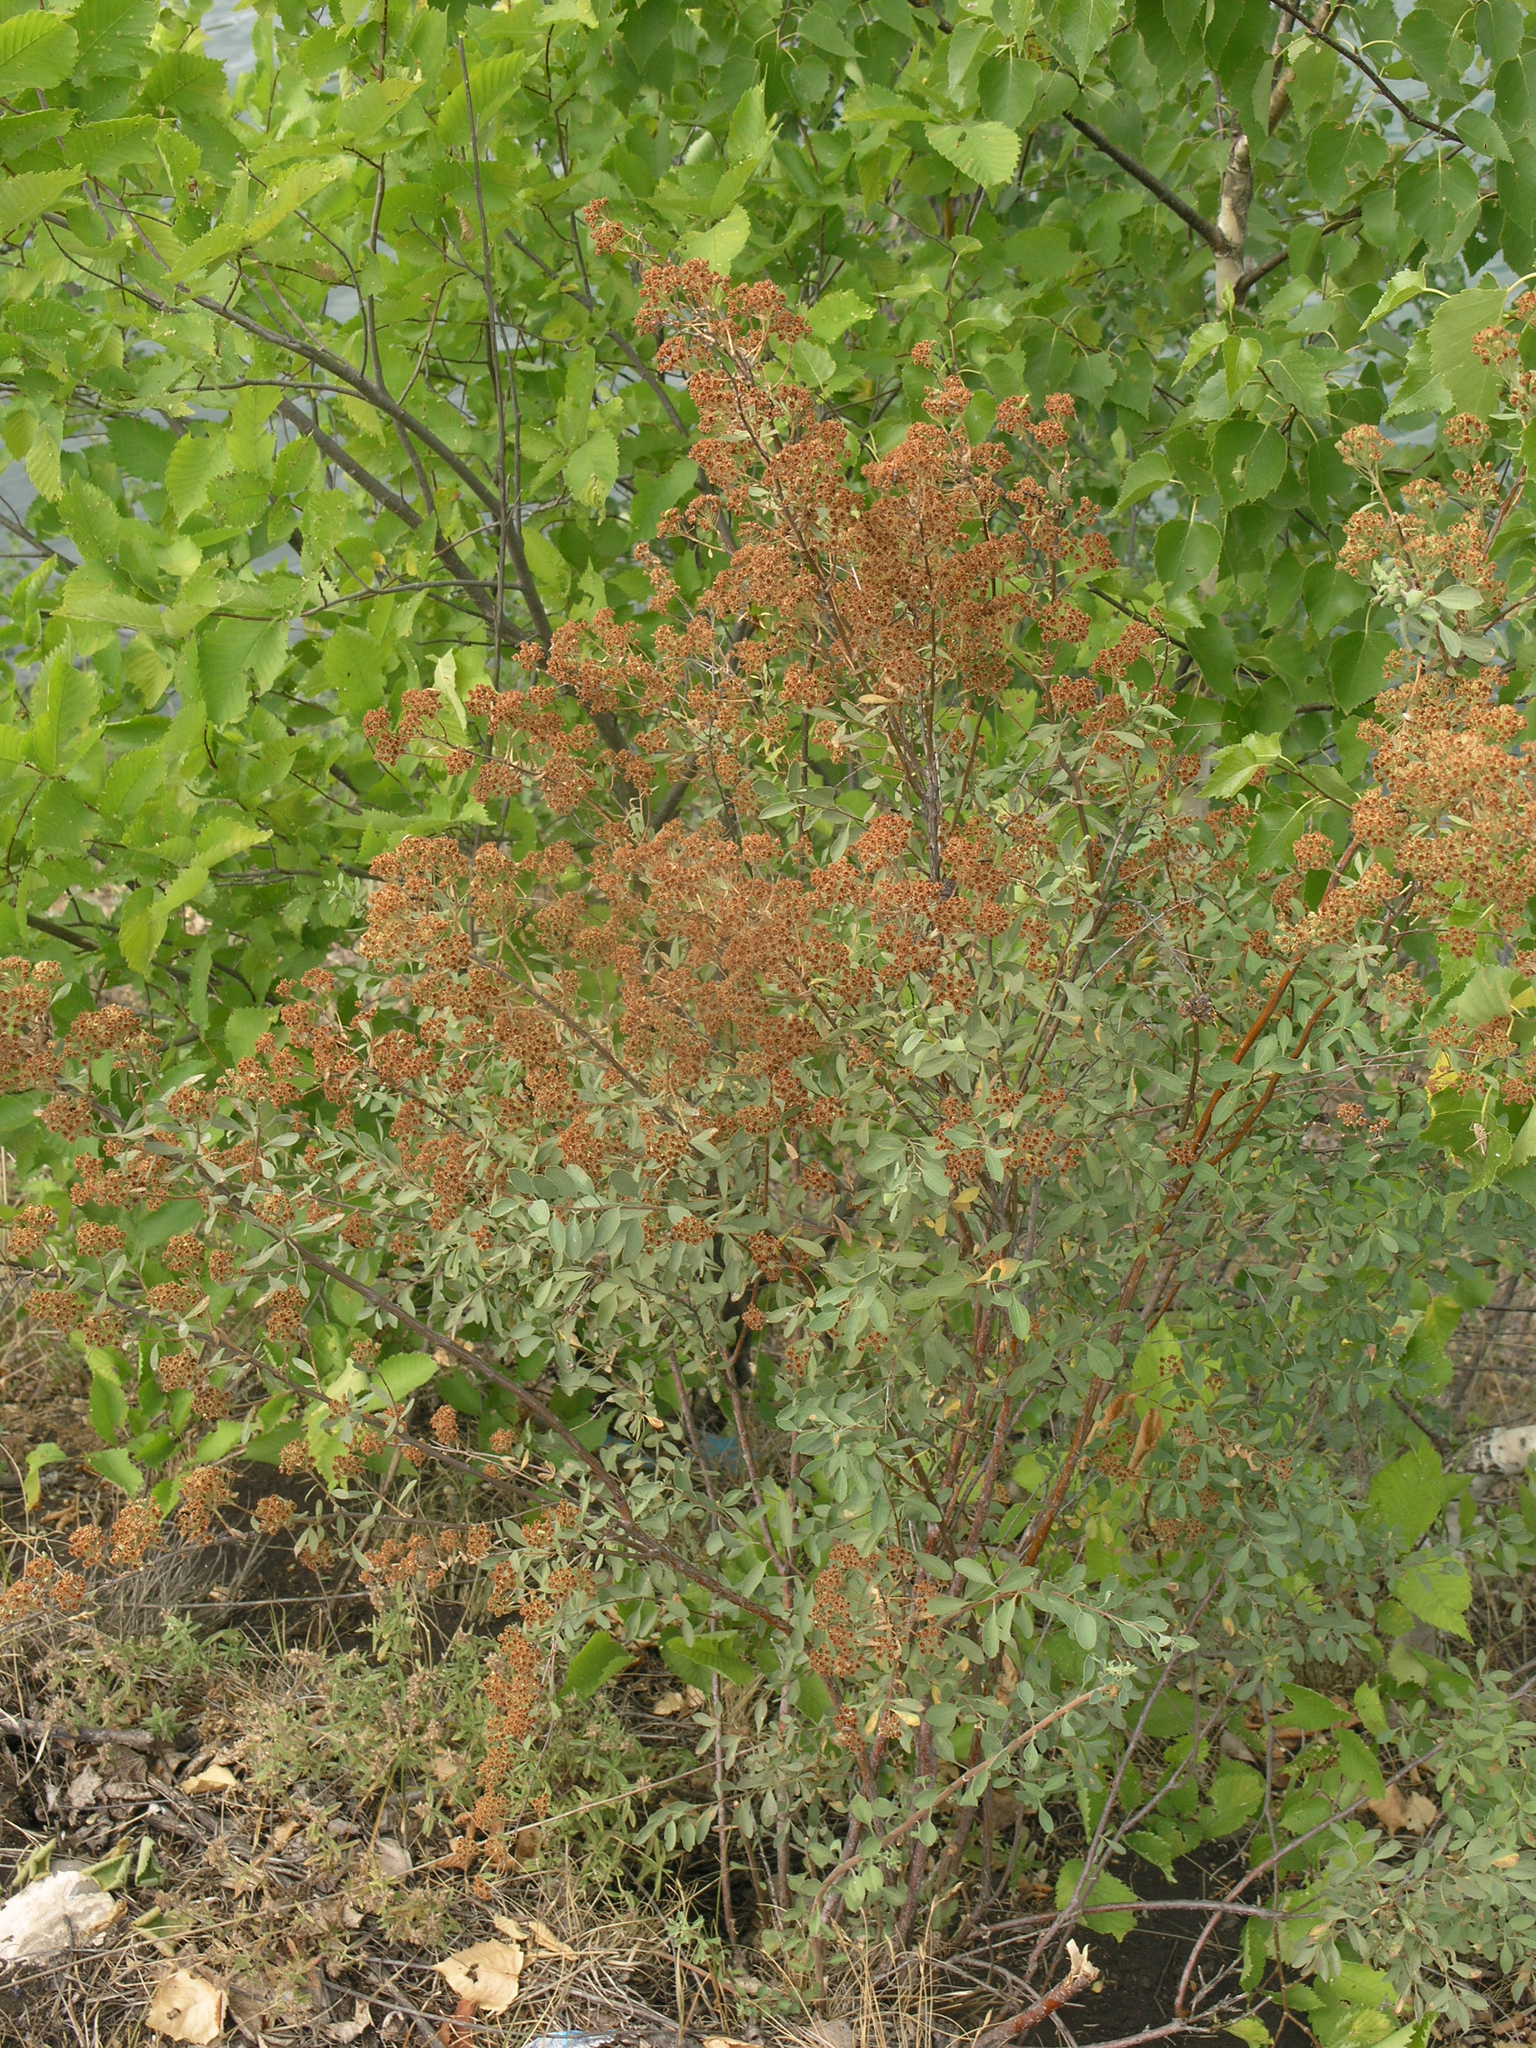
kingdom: Plantae
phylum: Tracheophyta
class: Magnoliopsida
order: Rosales
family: Rosaceae
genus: Spiraea
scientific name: Spiraea crenata
